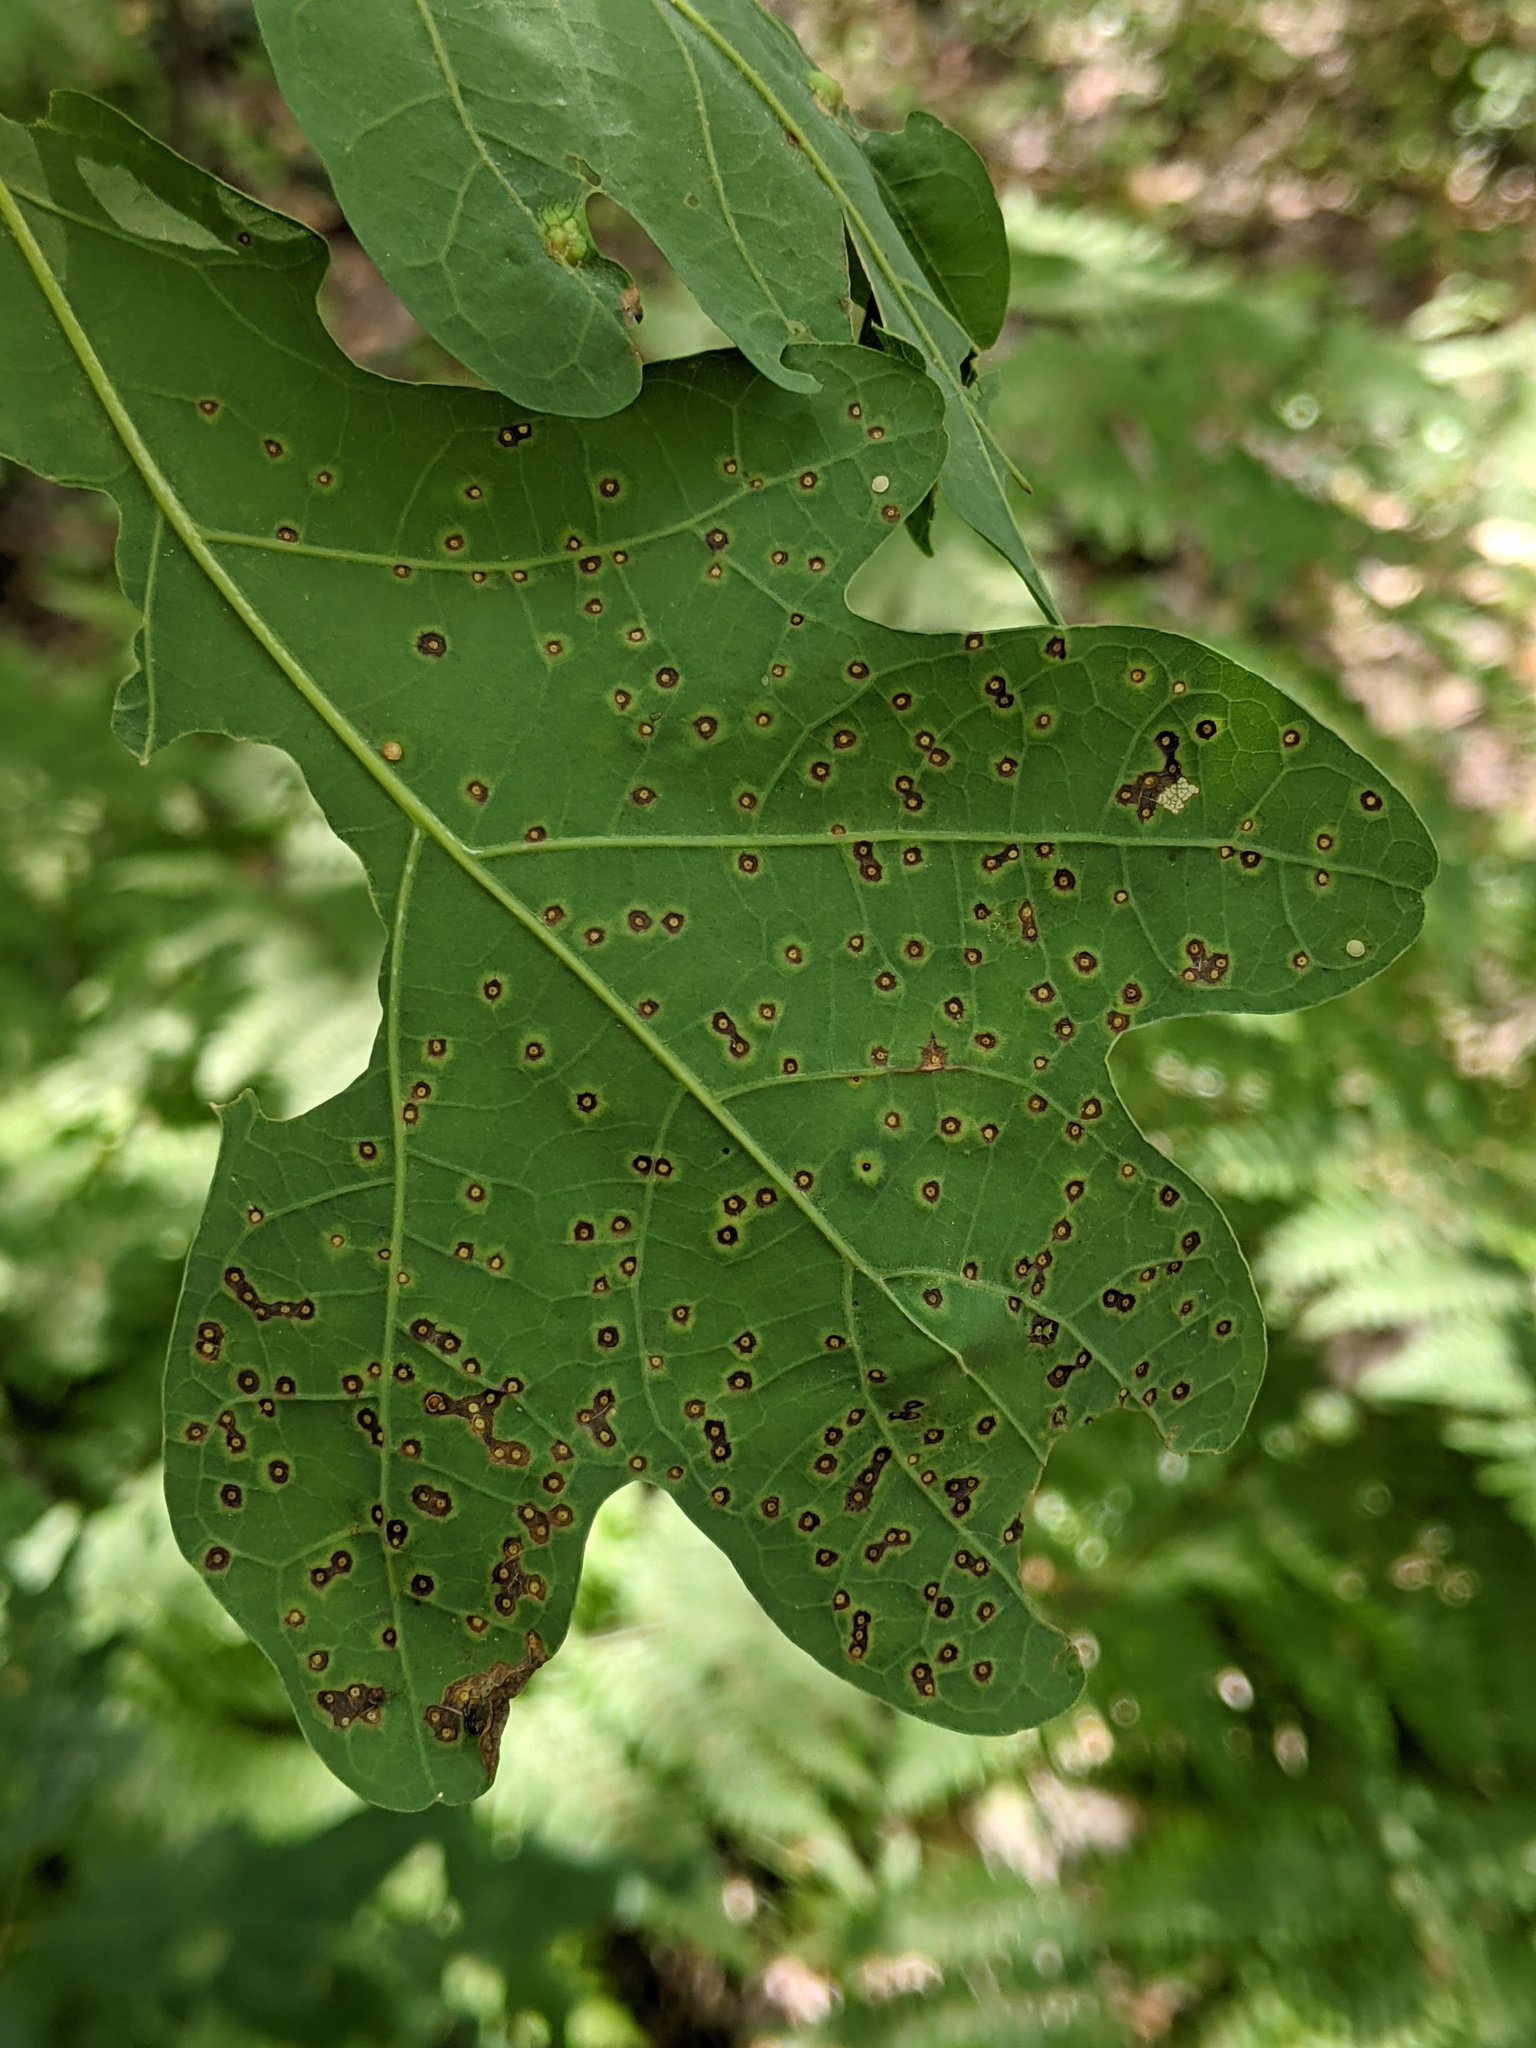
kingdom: Animalia
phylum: Arthropoda
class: Insecta
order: Hymenoptera
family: Cynipidae
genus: Neuroterus
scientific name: Neuroterus
